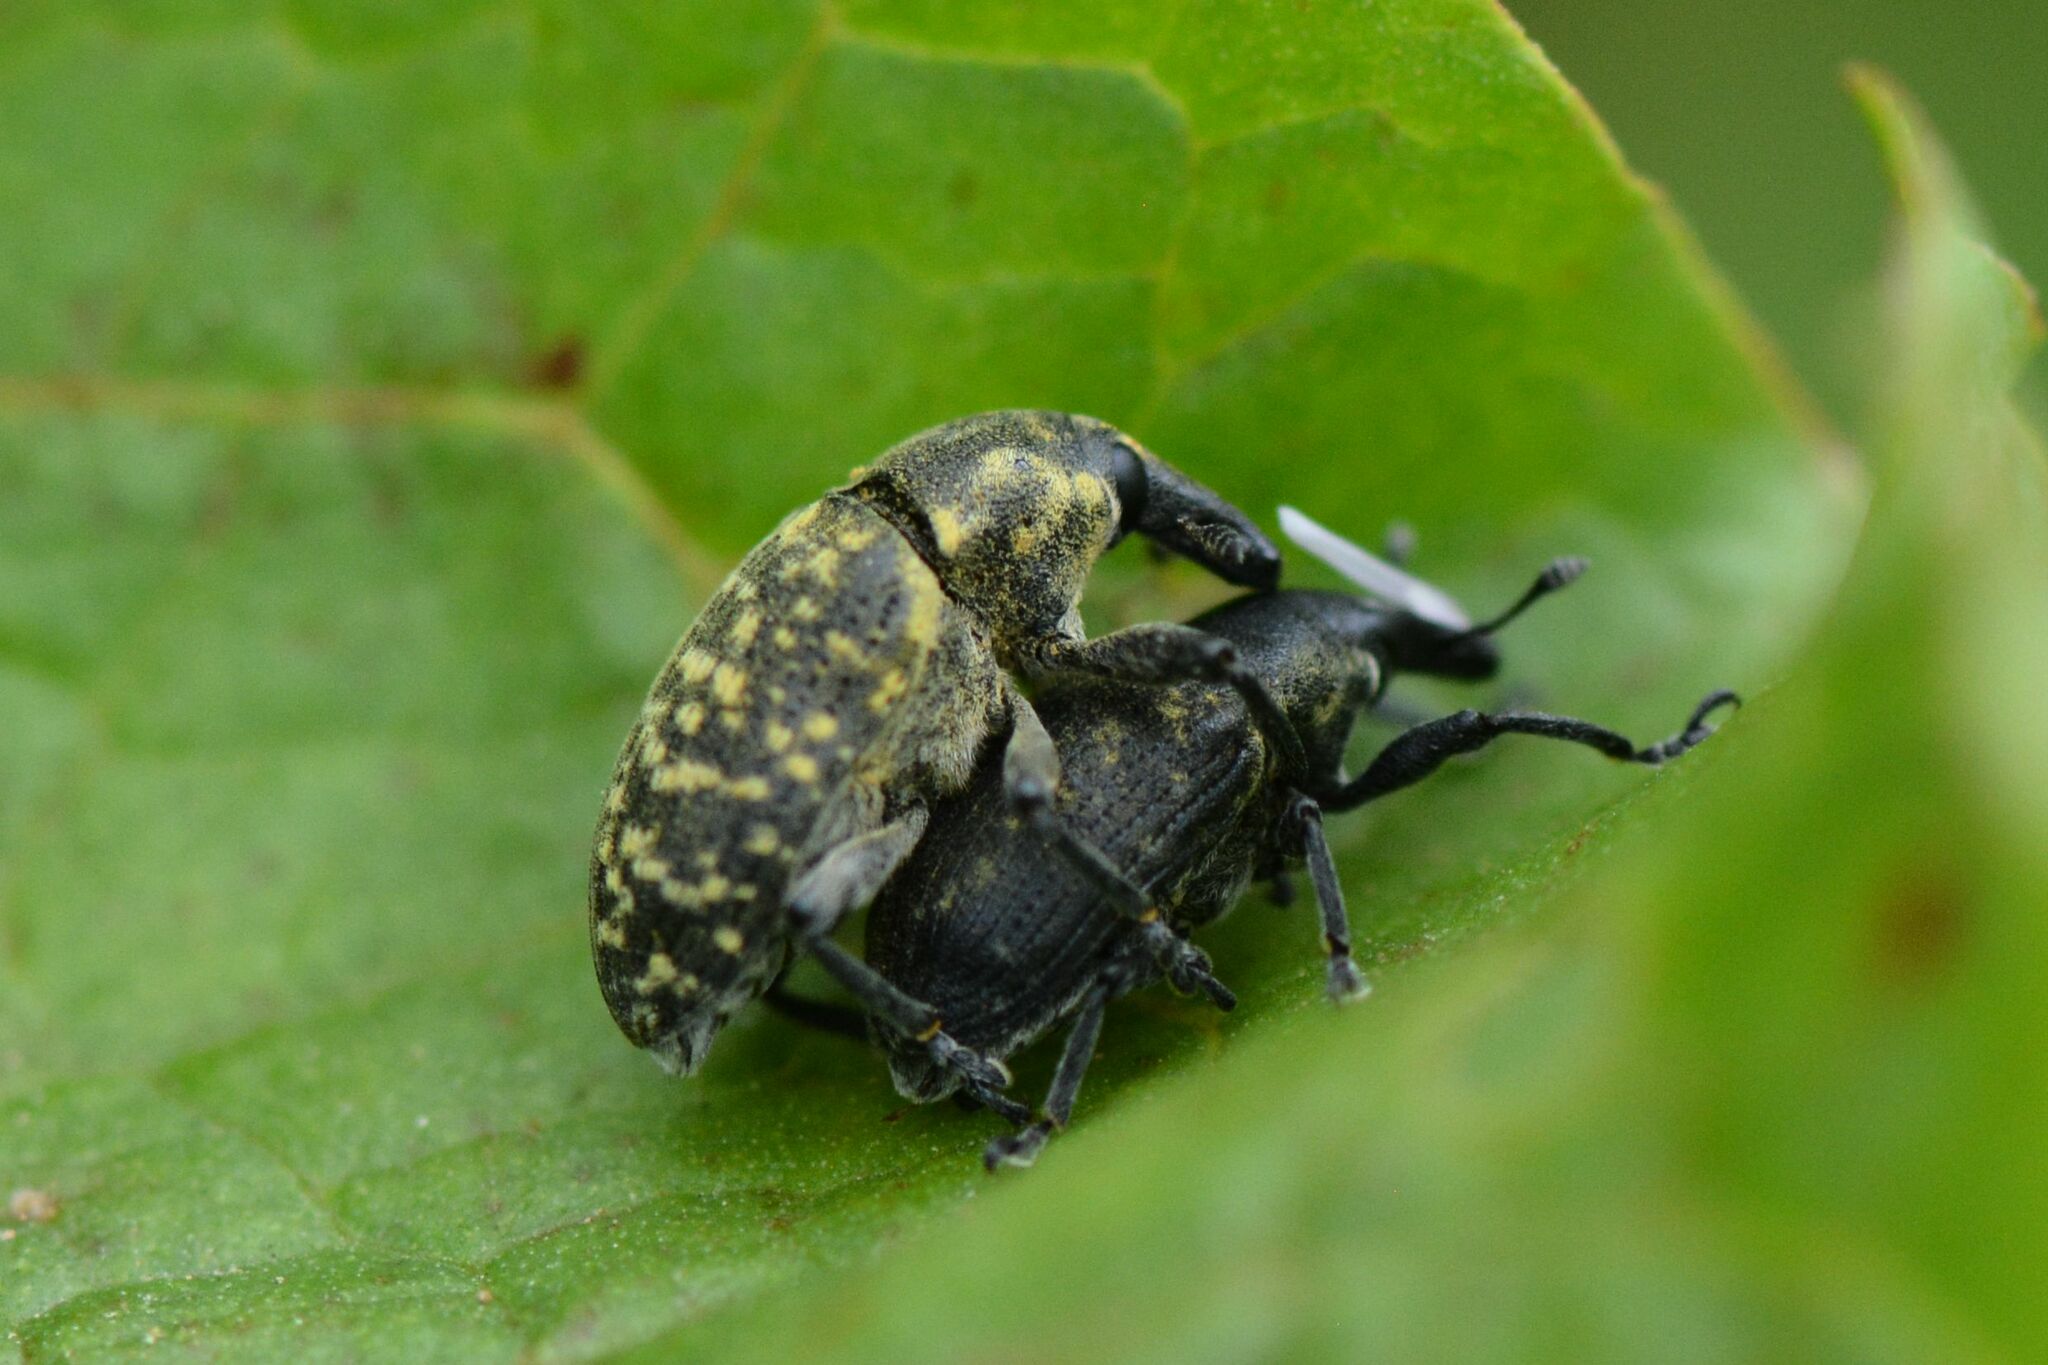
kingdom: Animalia
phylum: Arthropoda
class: Insecta
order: Coleoptera
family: Curculionidae
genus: Larinus
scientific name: Larinus turbinatus
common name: Weevil
